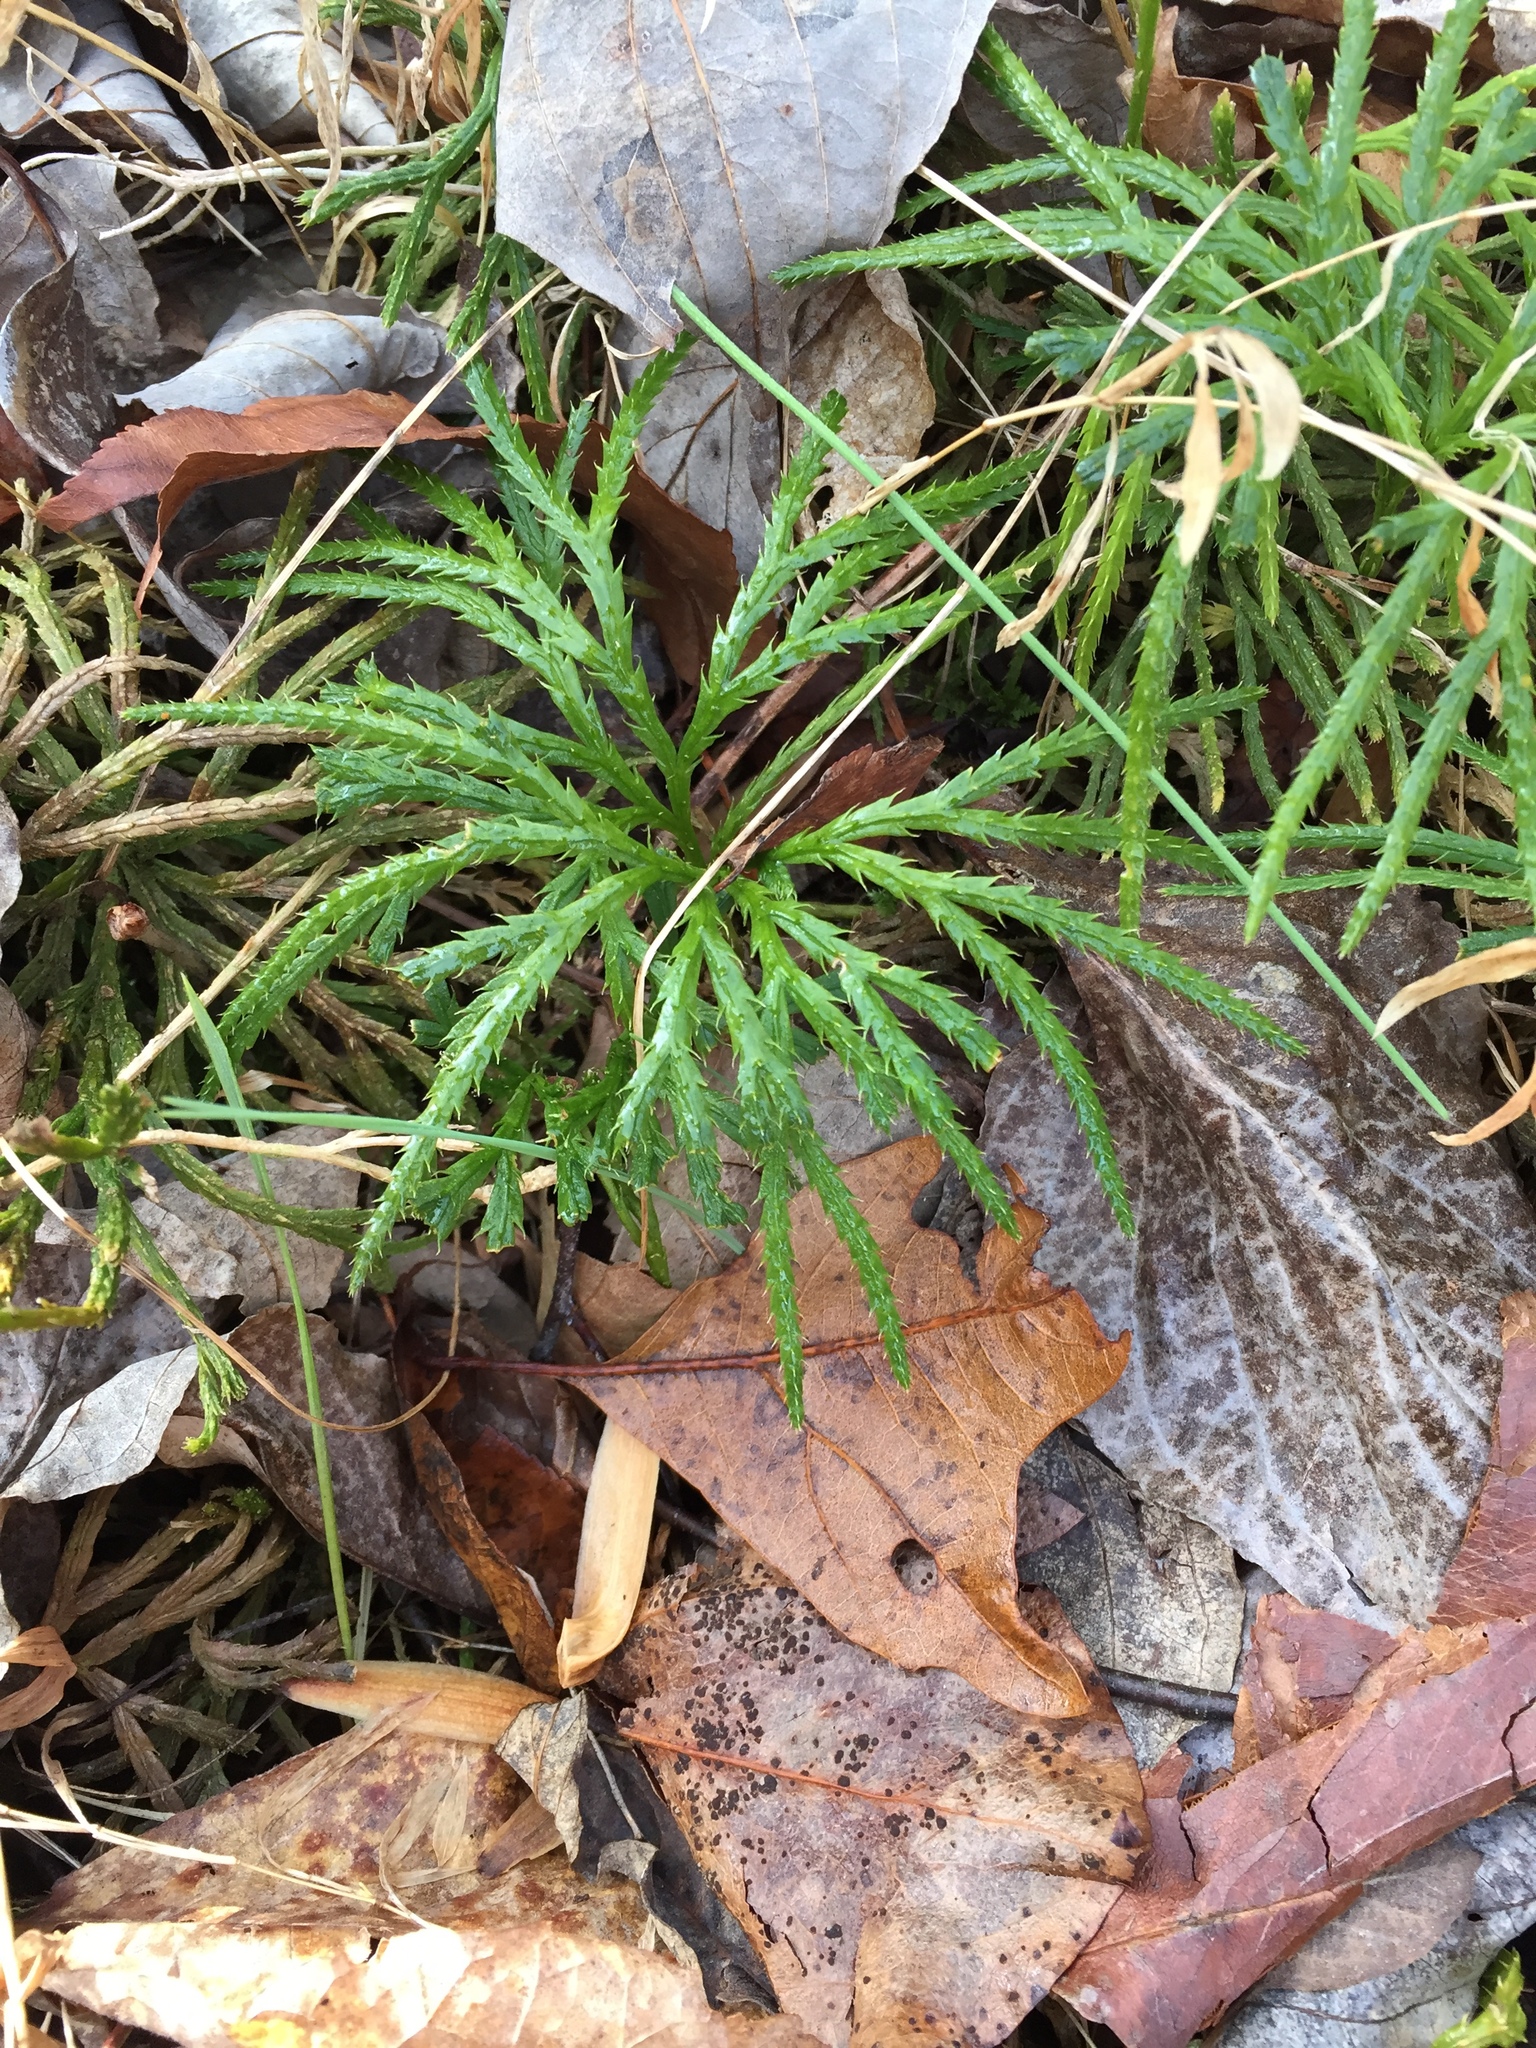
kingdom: Plantae
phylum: Tracheophyta
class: Lycopodiopsida
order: Lycopodiales
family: Lycopodiaceae
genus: Diphasiastrum
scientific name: Diphasiastrum digitatum
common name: Southern running-pine
